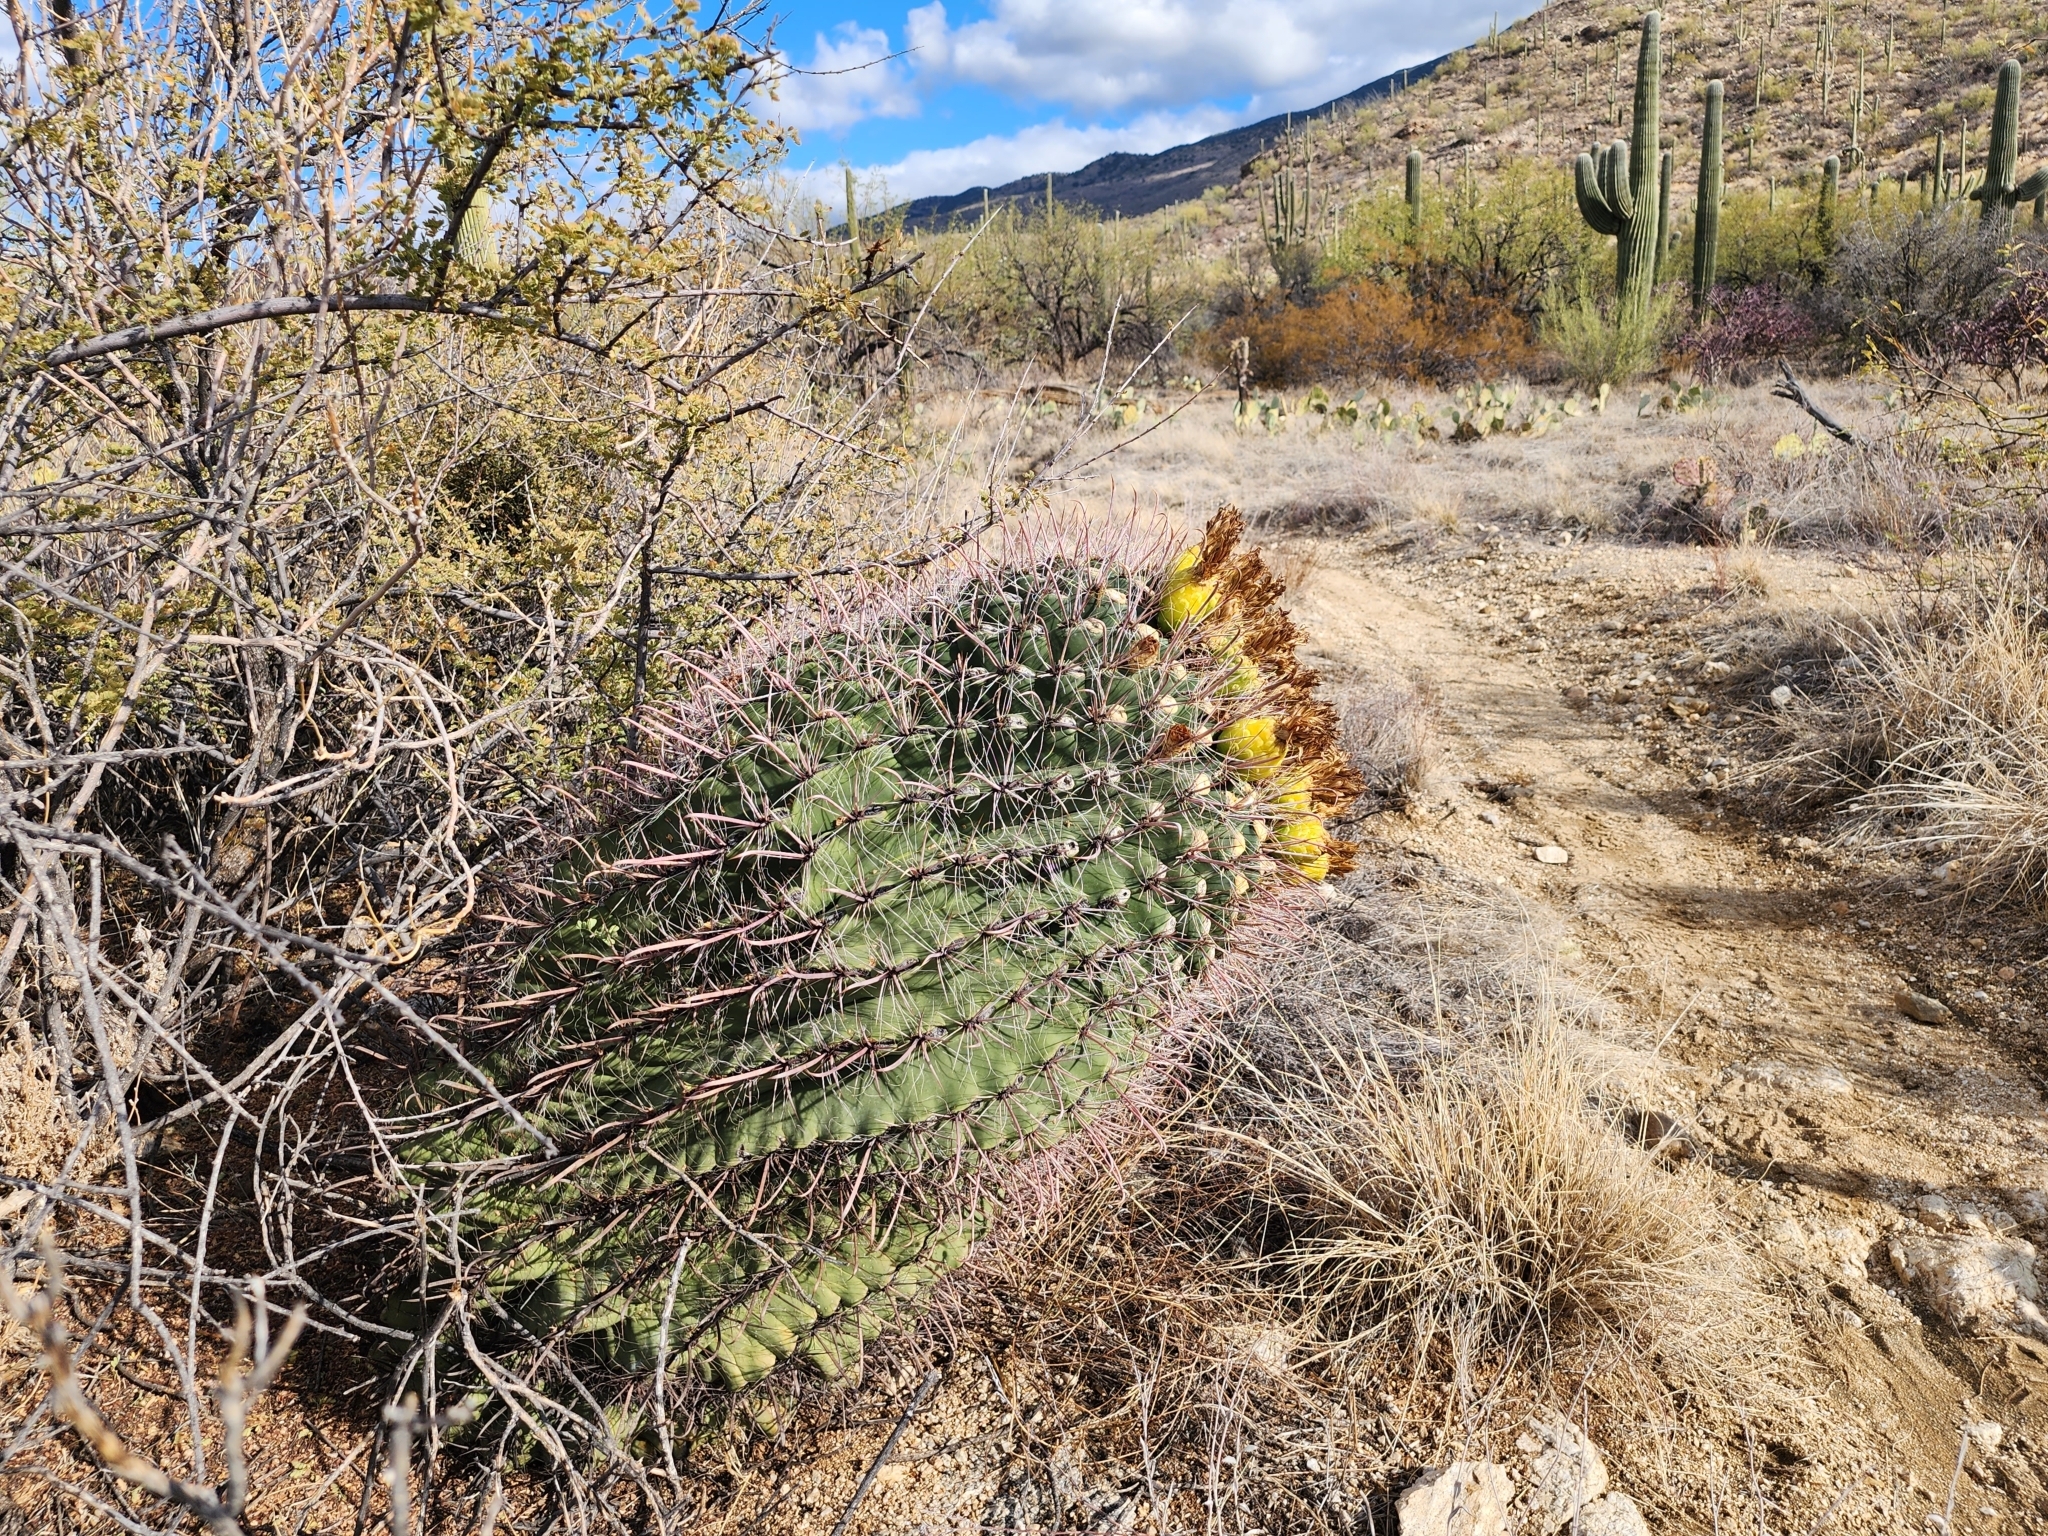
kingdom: Plantae
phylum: Tracheophyta
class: Magnoliopsida
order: Caryophyllales
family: Cactaceae
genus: Ferocactus
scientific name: Ferocactus wislizeni
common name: Candy barrel cactus
